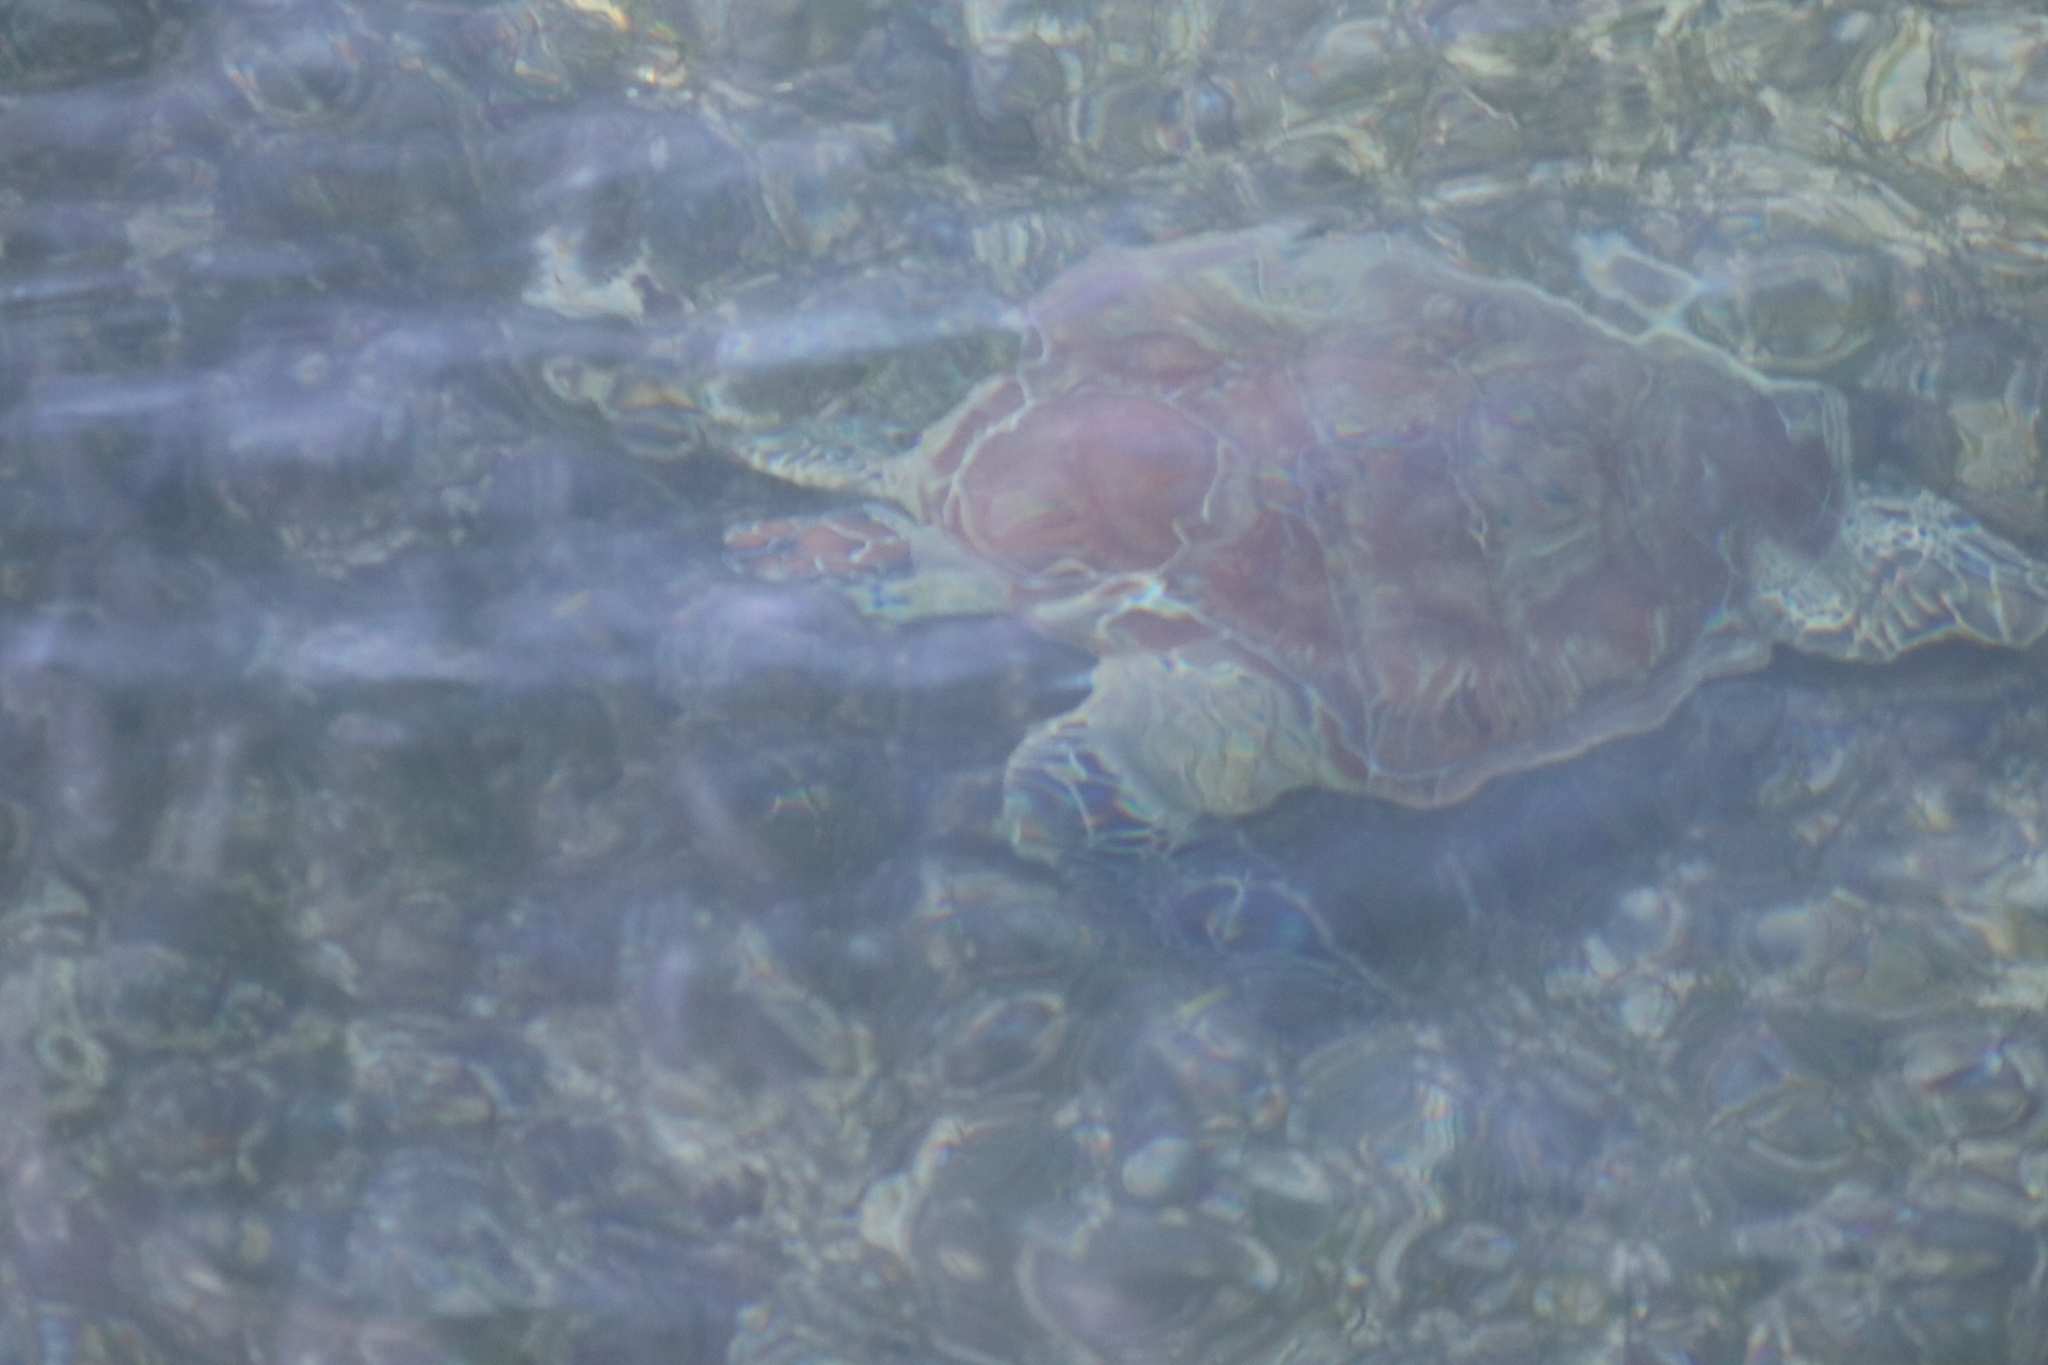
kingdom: Animalia
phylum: Chordata
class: Testudines
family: Cheloniidae
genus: Chelonia
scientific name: Chelonia mydas
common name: Green turtle
